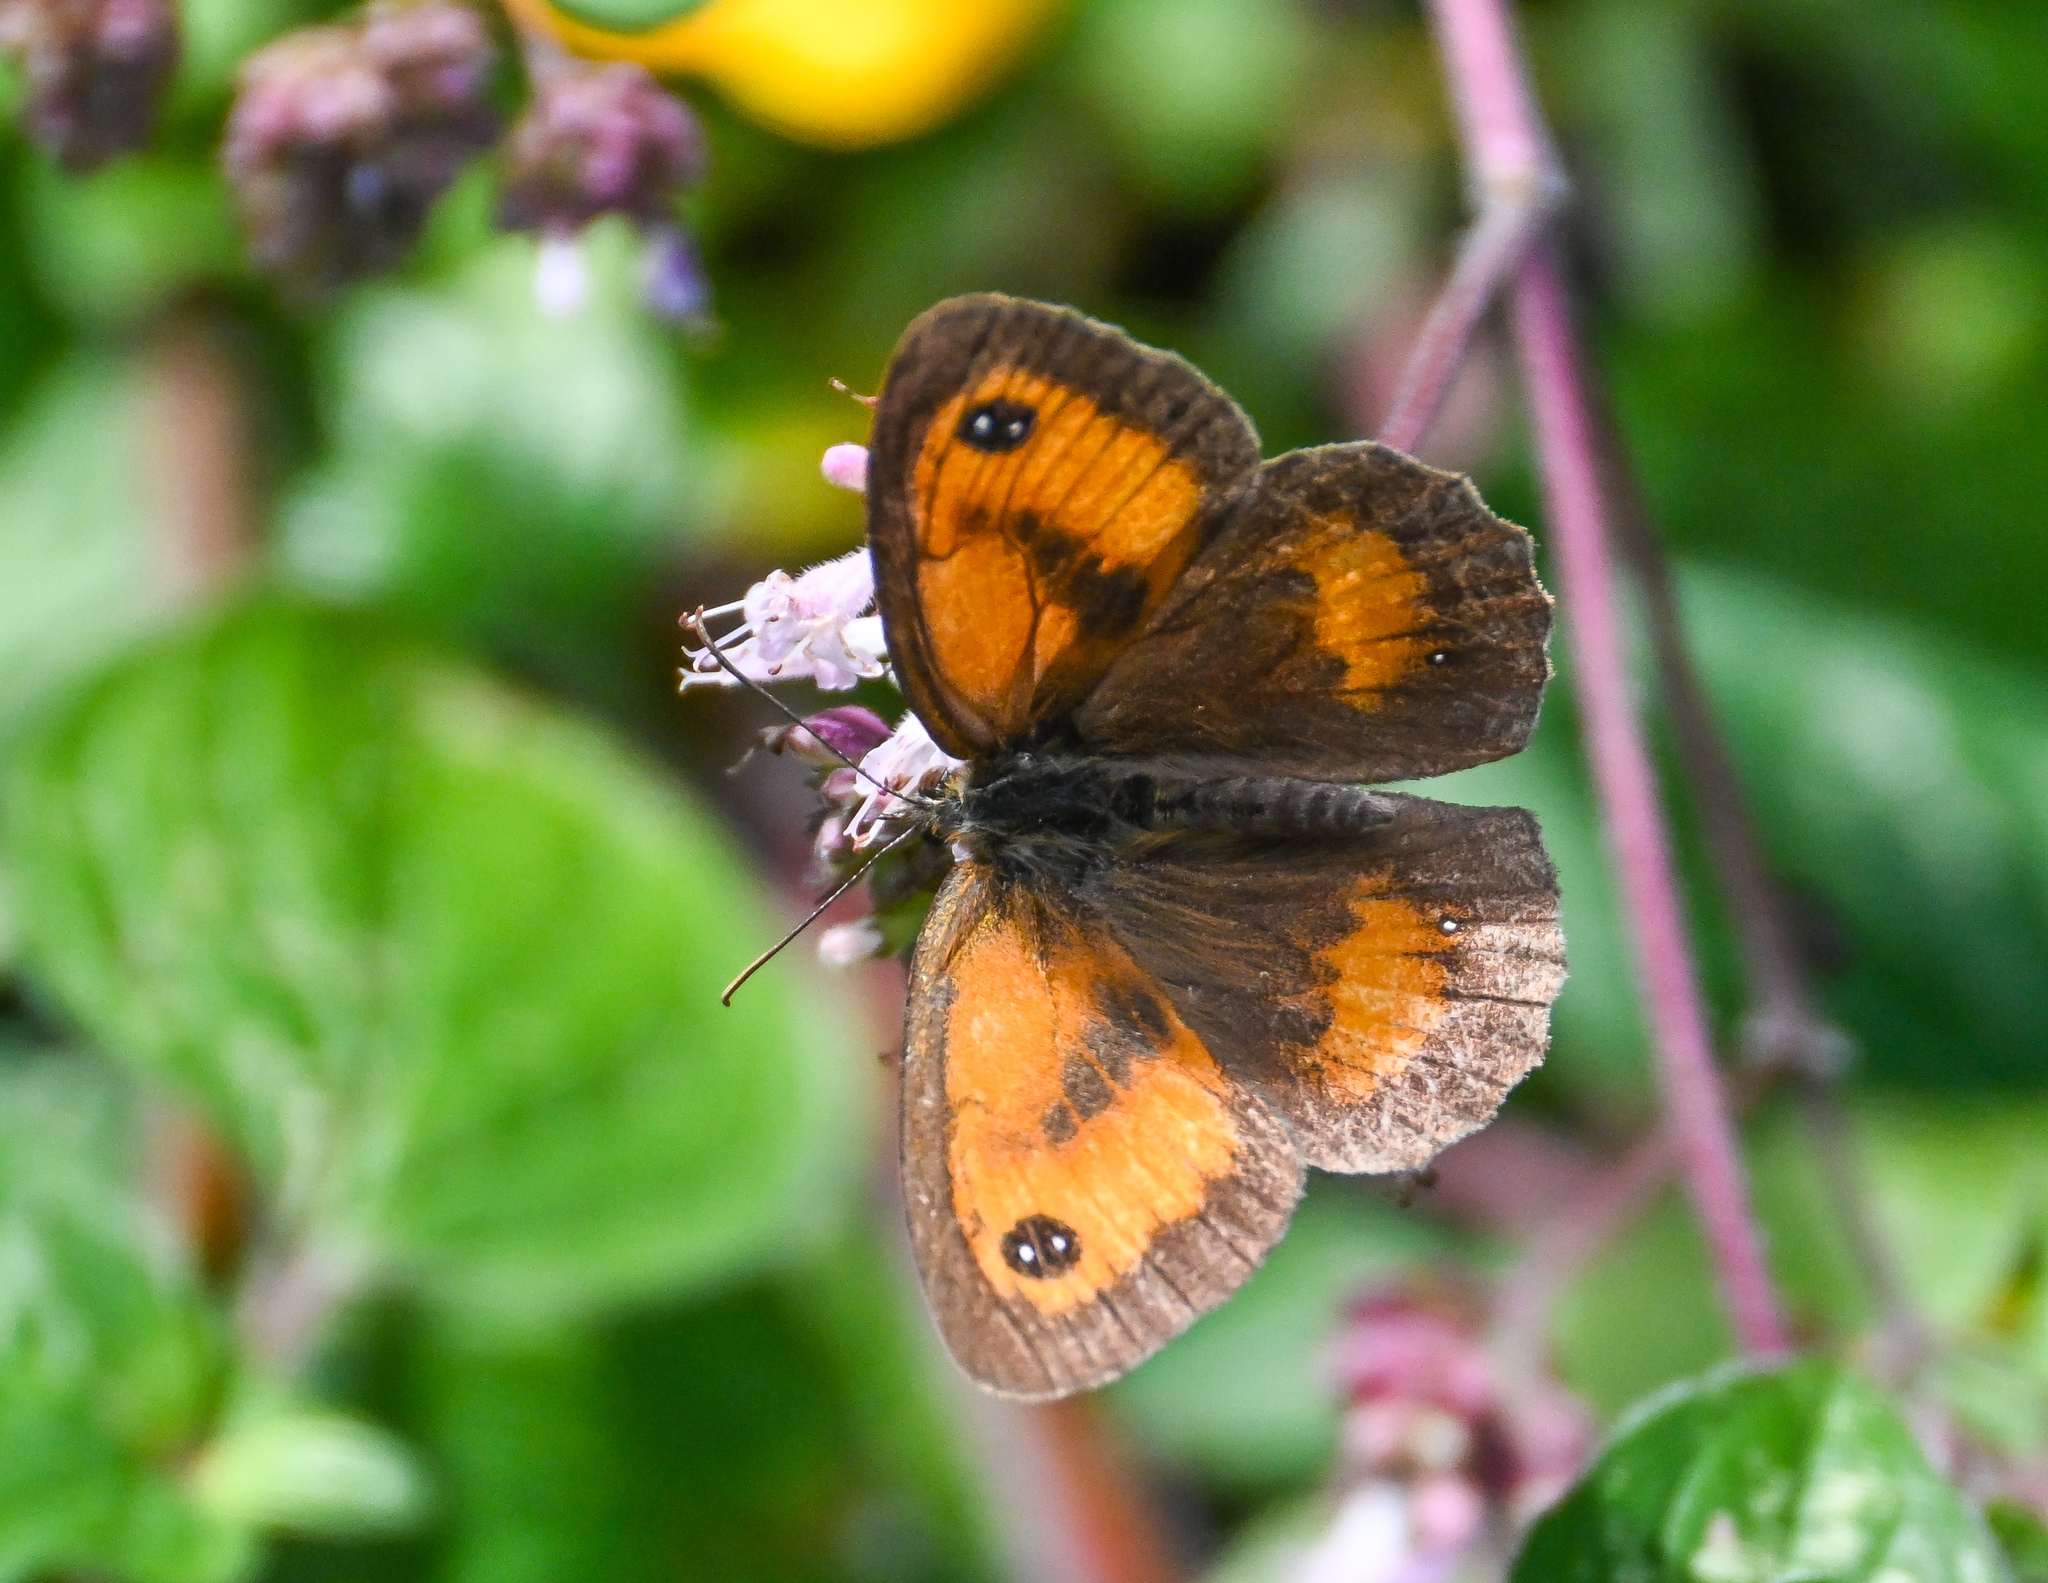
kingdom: Animalia
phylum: Arthropoda
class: Insecta
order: Lepidoptera
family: Nymphalidae
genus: Pyronia
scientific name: Pyronia tithonus
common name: Gatekeeper
